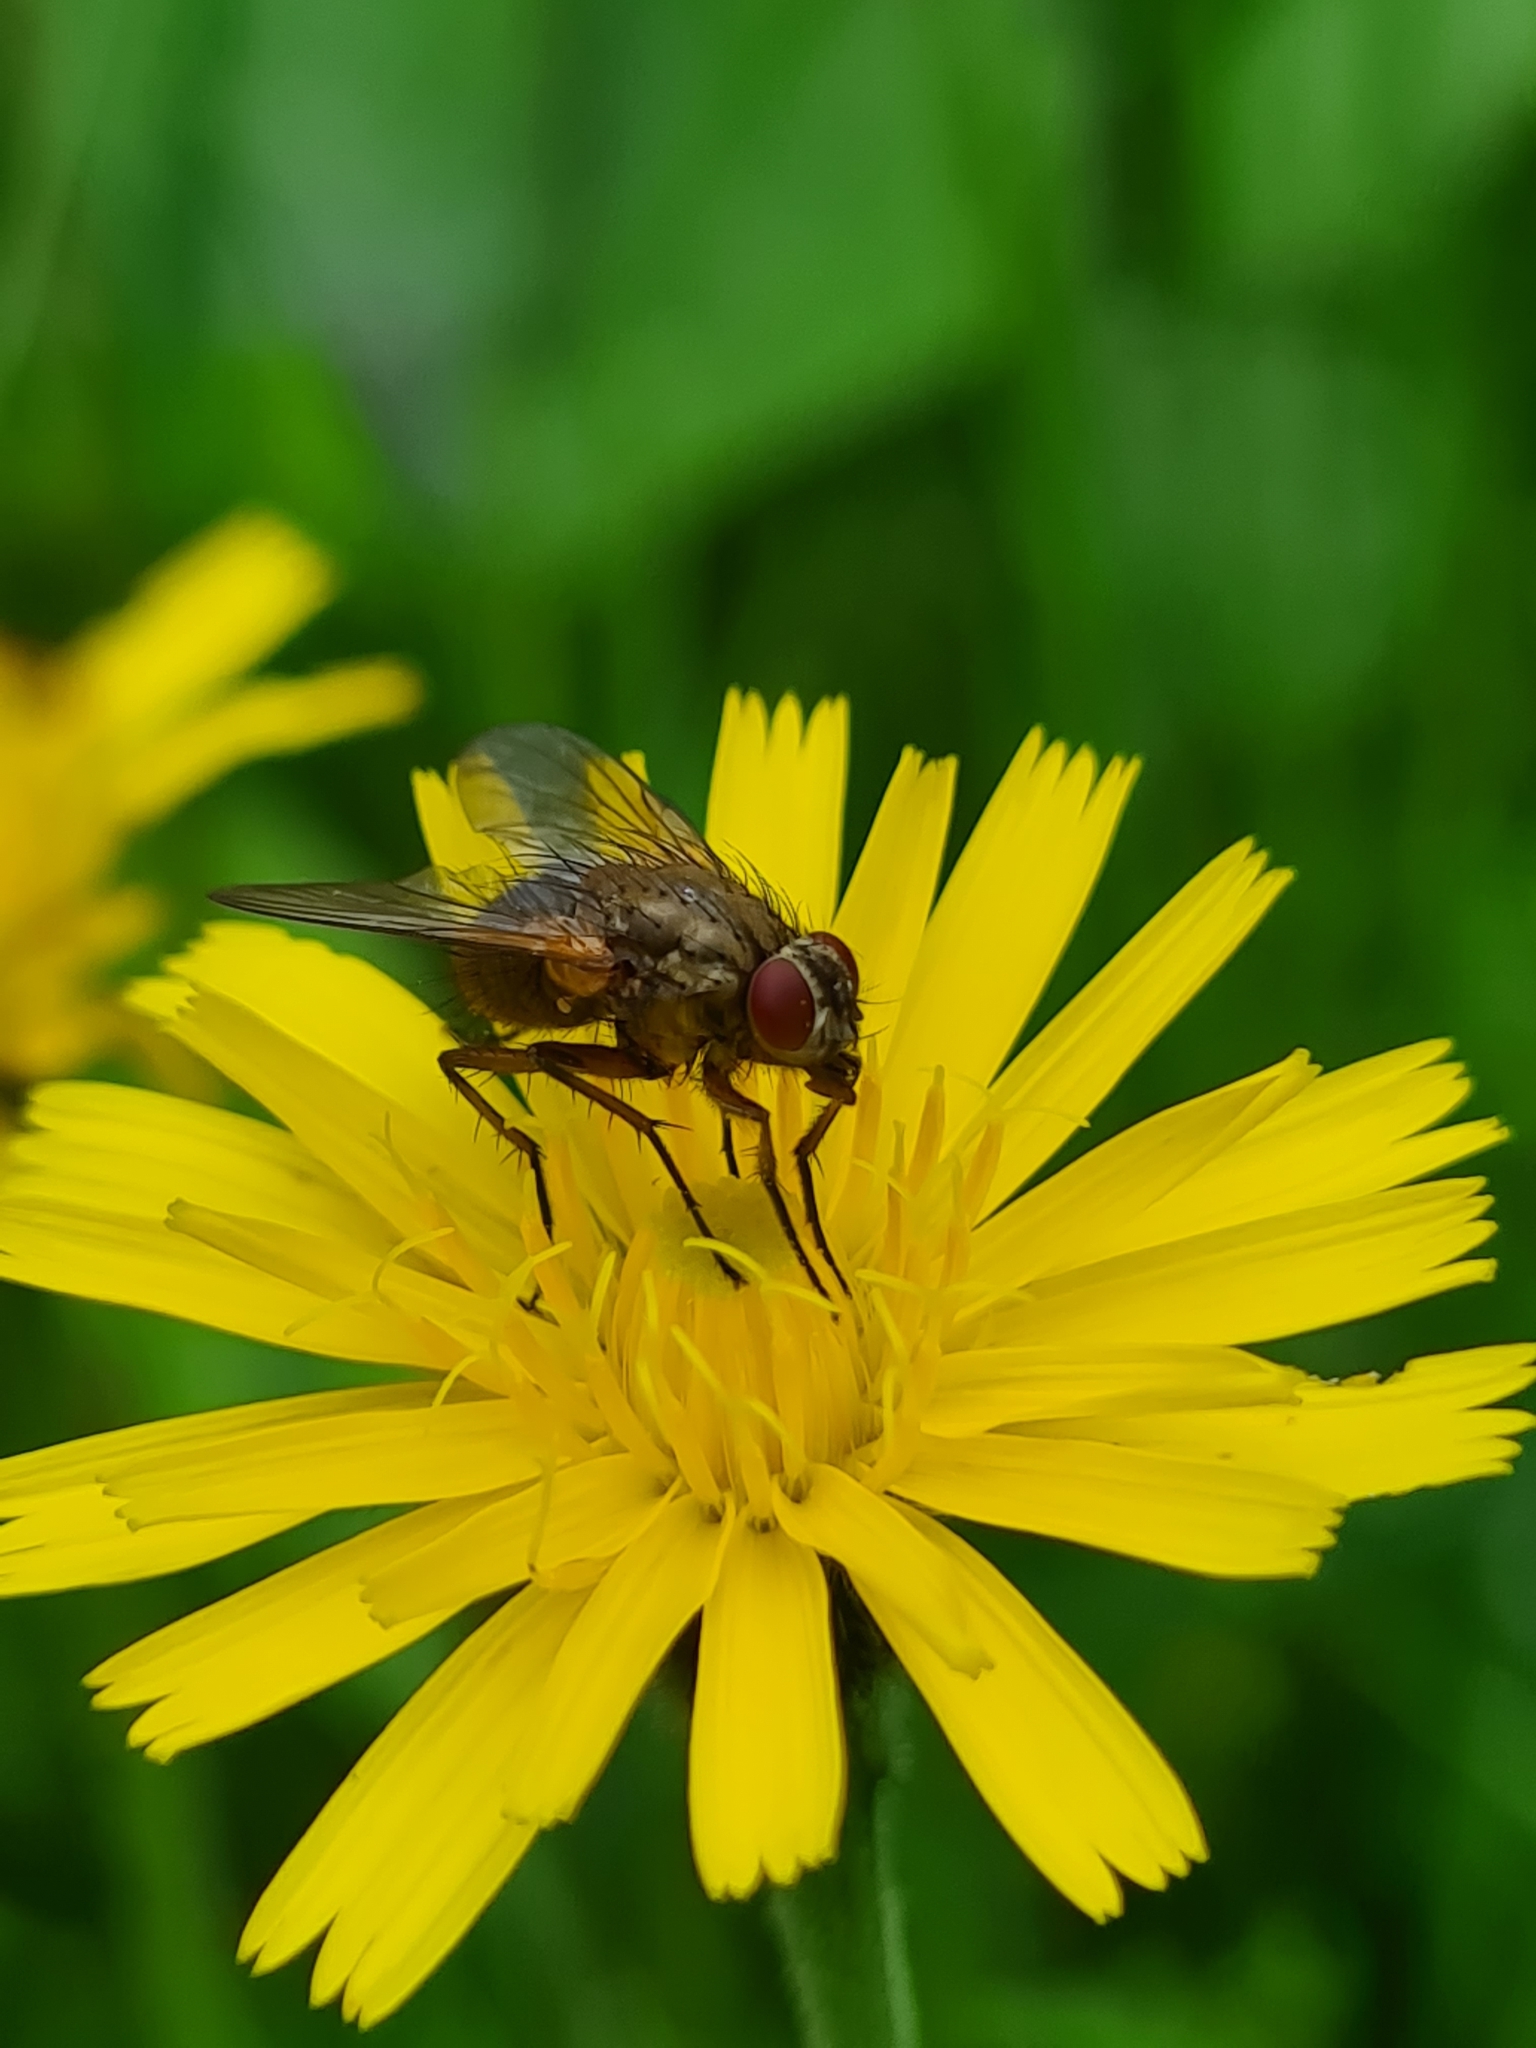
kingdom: Animalia
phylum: Arthropoda
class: Insecta
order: Diptera
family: Muscidae
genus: Phaonia
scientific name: Phaonia angelicae
